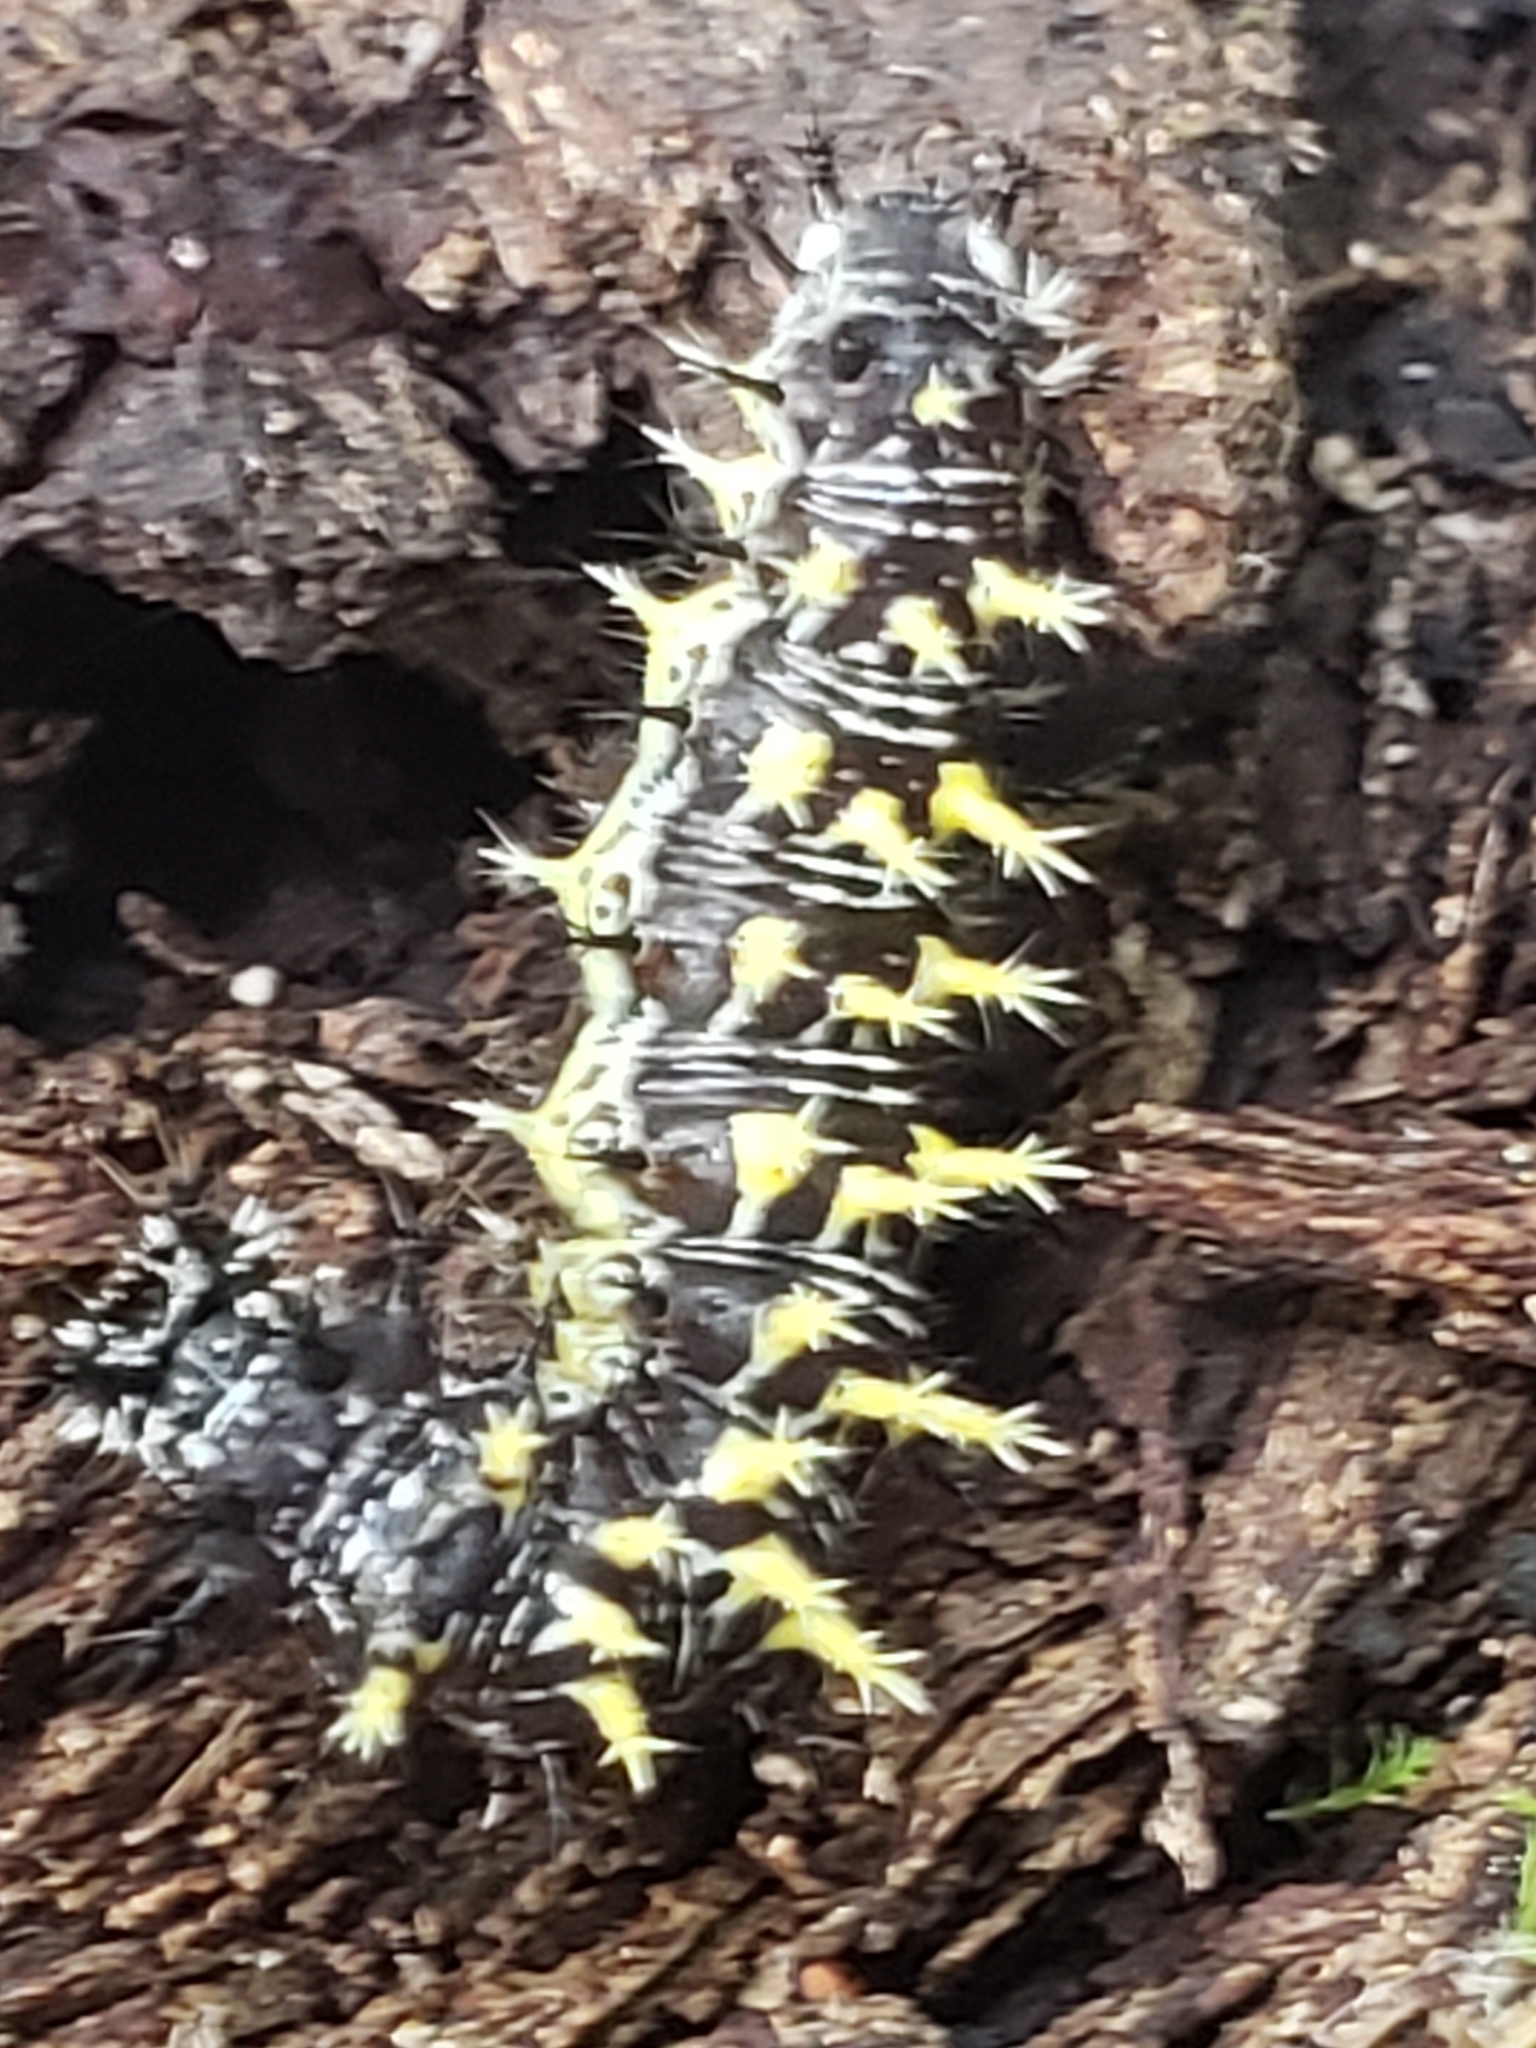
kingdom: Animalia
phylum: Arthropoda
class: Insecta
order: Lepidoptera
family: Nymphalidae
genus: Polygonia
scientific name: Polygonia comma
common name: Eastern comma
